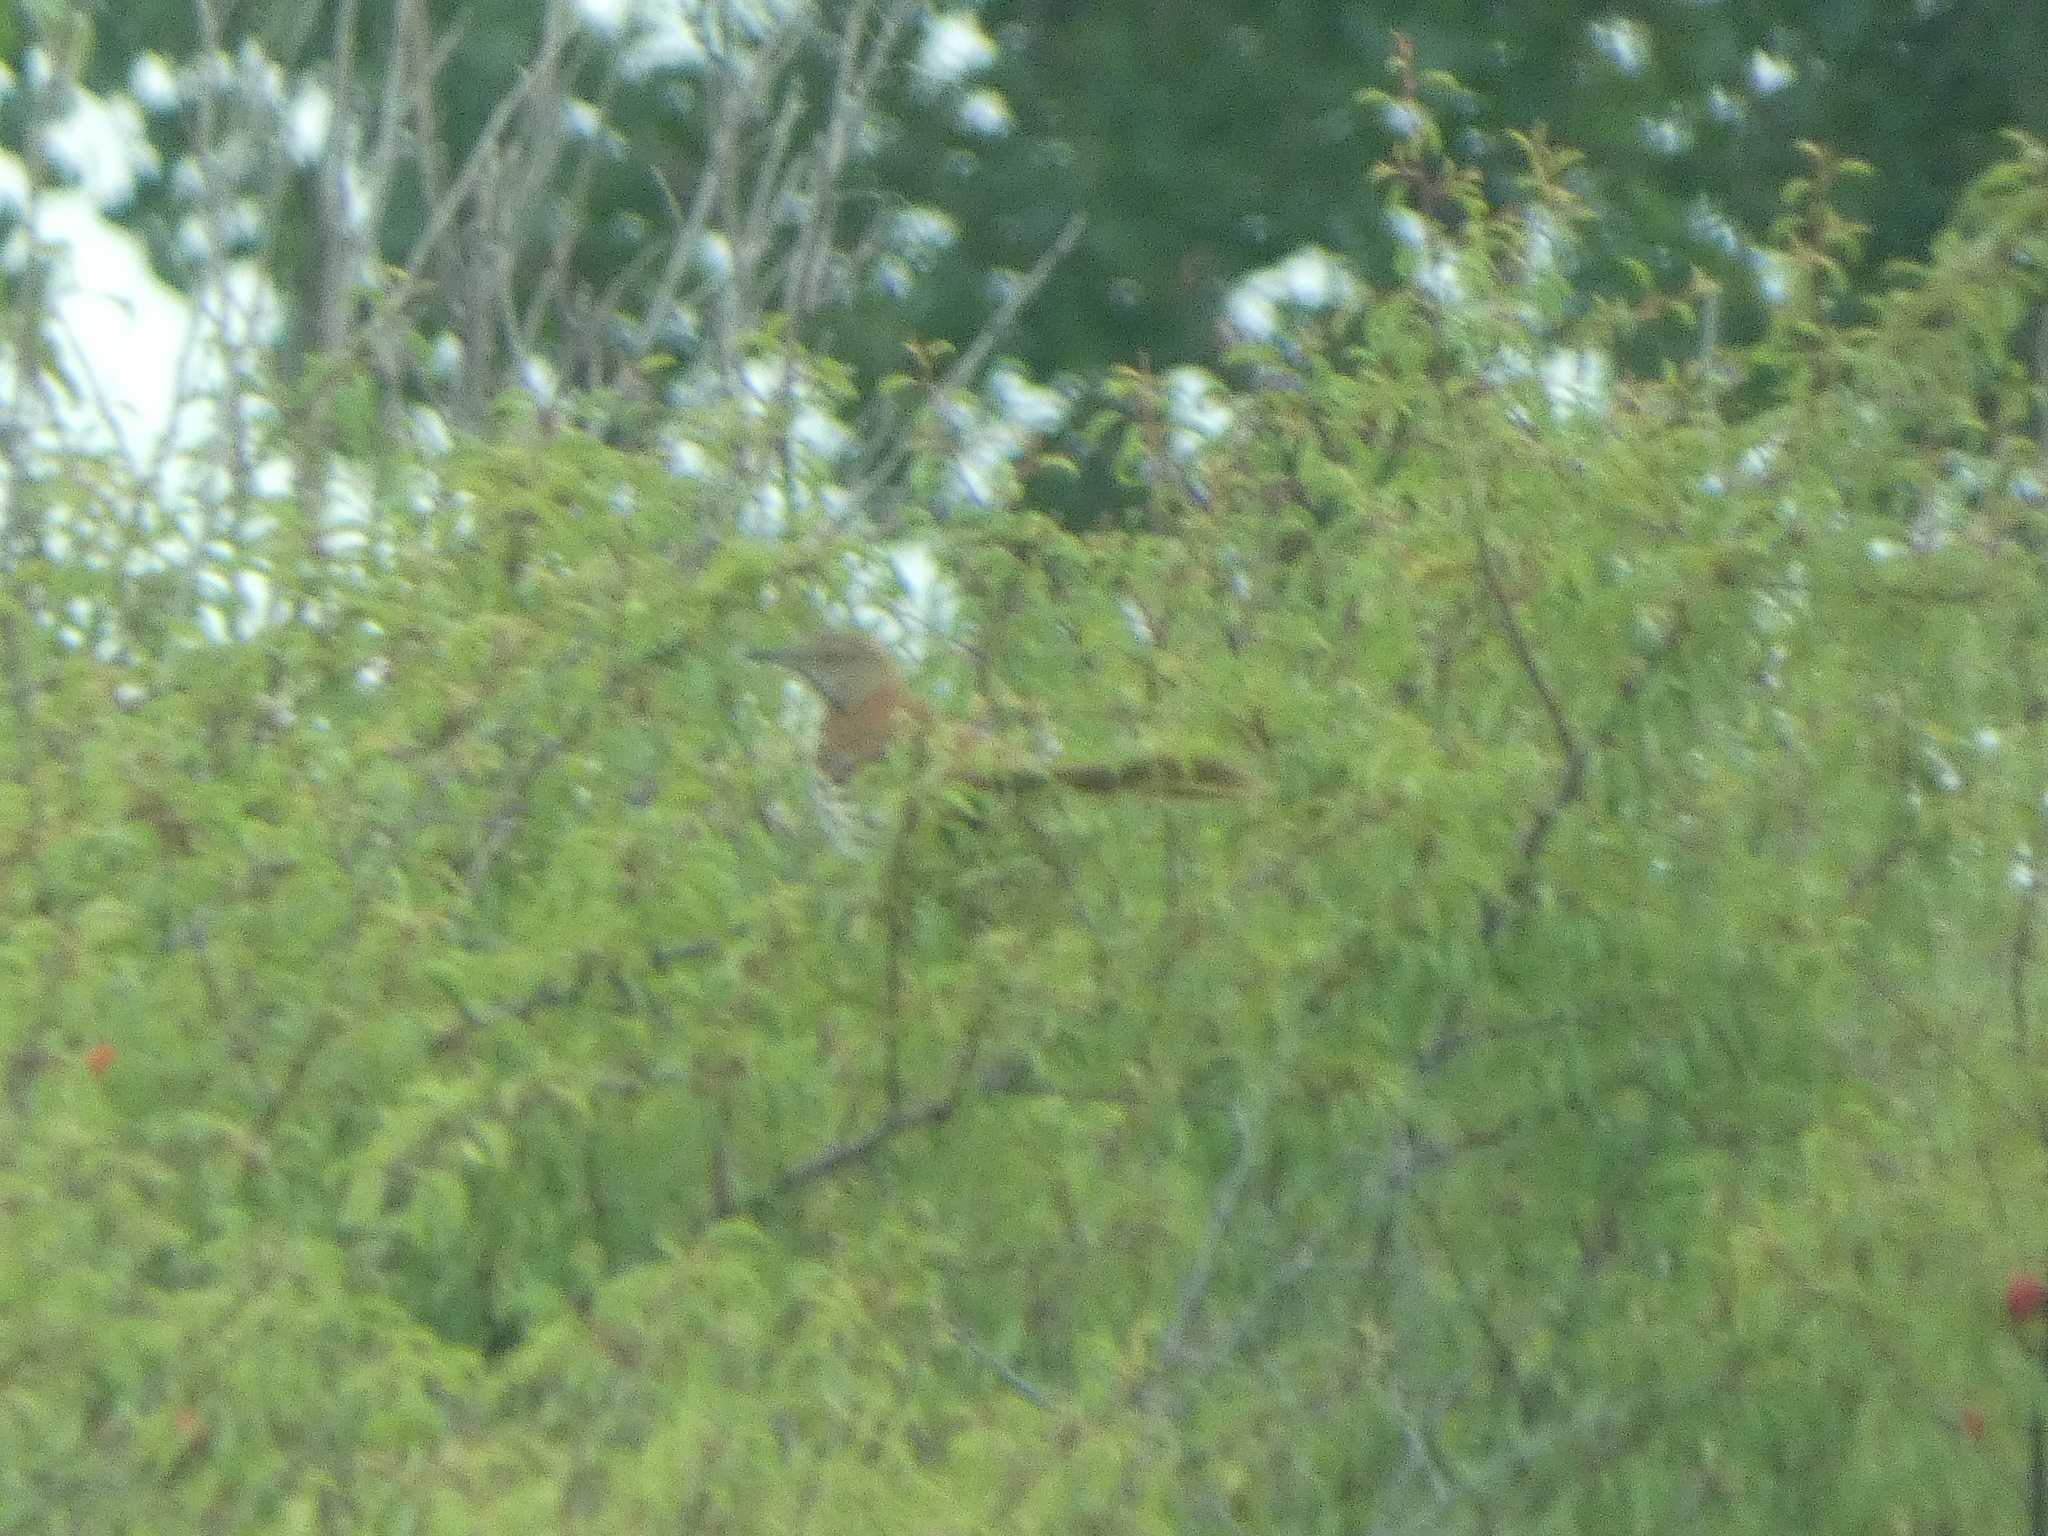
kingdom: Animalia
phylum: Chordata
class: Aves
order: Passeriformes
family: Mimidae
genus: Toxostoma
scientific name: Toxostoma rufum
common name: Brown thrasher
